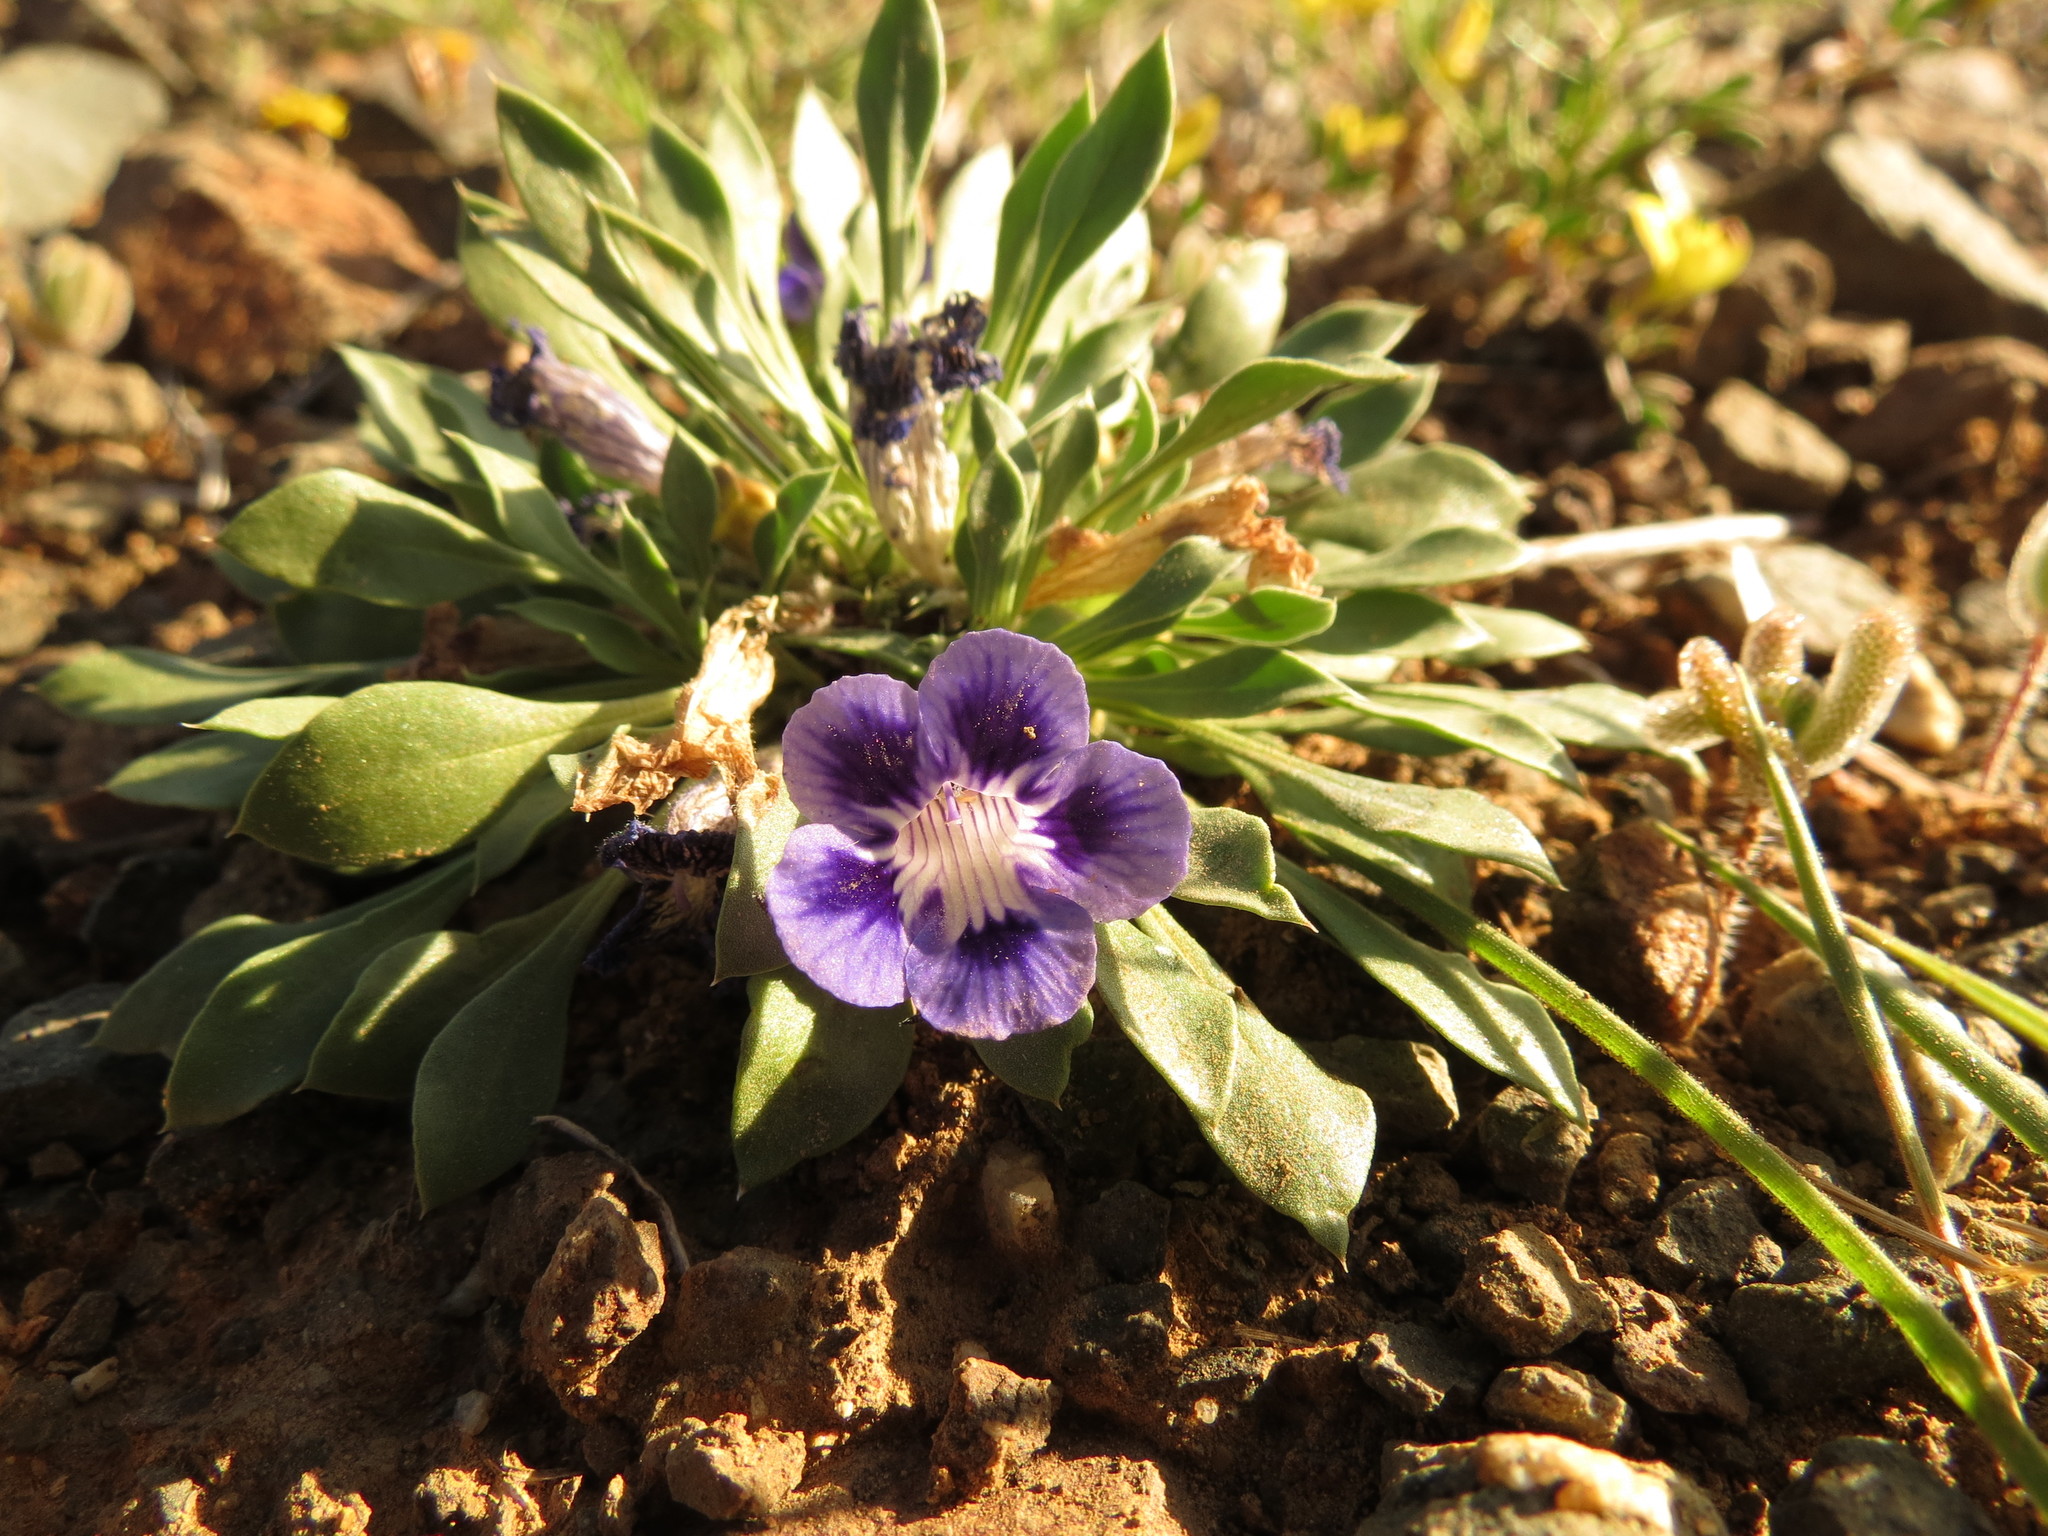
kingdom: Plantae
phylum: Tracheophyta
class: Magnoliopsida
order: Lamiales
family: Scrophulariaceae
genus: Aptosimum
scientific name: Aptosimum indivisum
